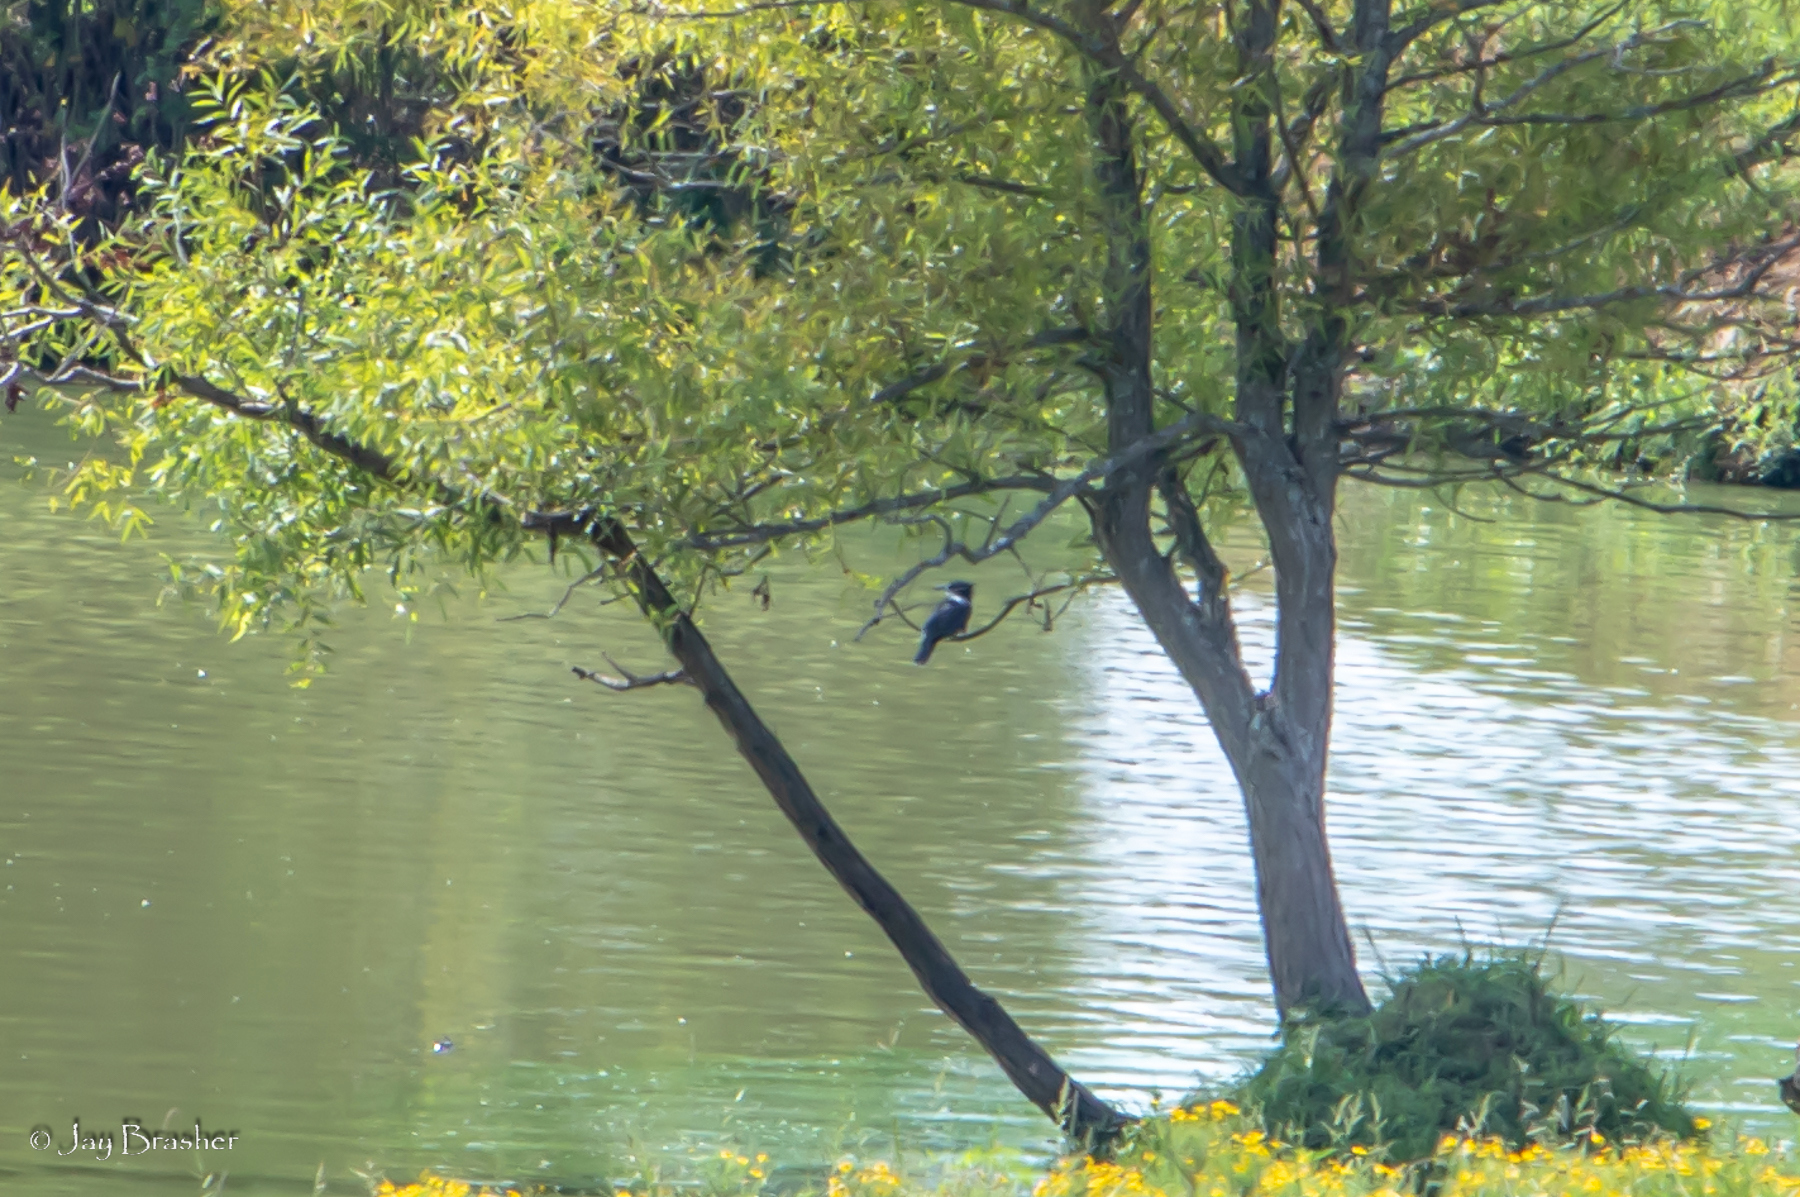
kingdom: Animalia
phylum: Chordata
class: Aves
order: Coraciiformes
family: Alcedinidae
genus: Megaceryle
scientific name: Megaceryle alcyon
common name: Belted kingfisher
